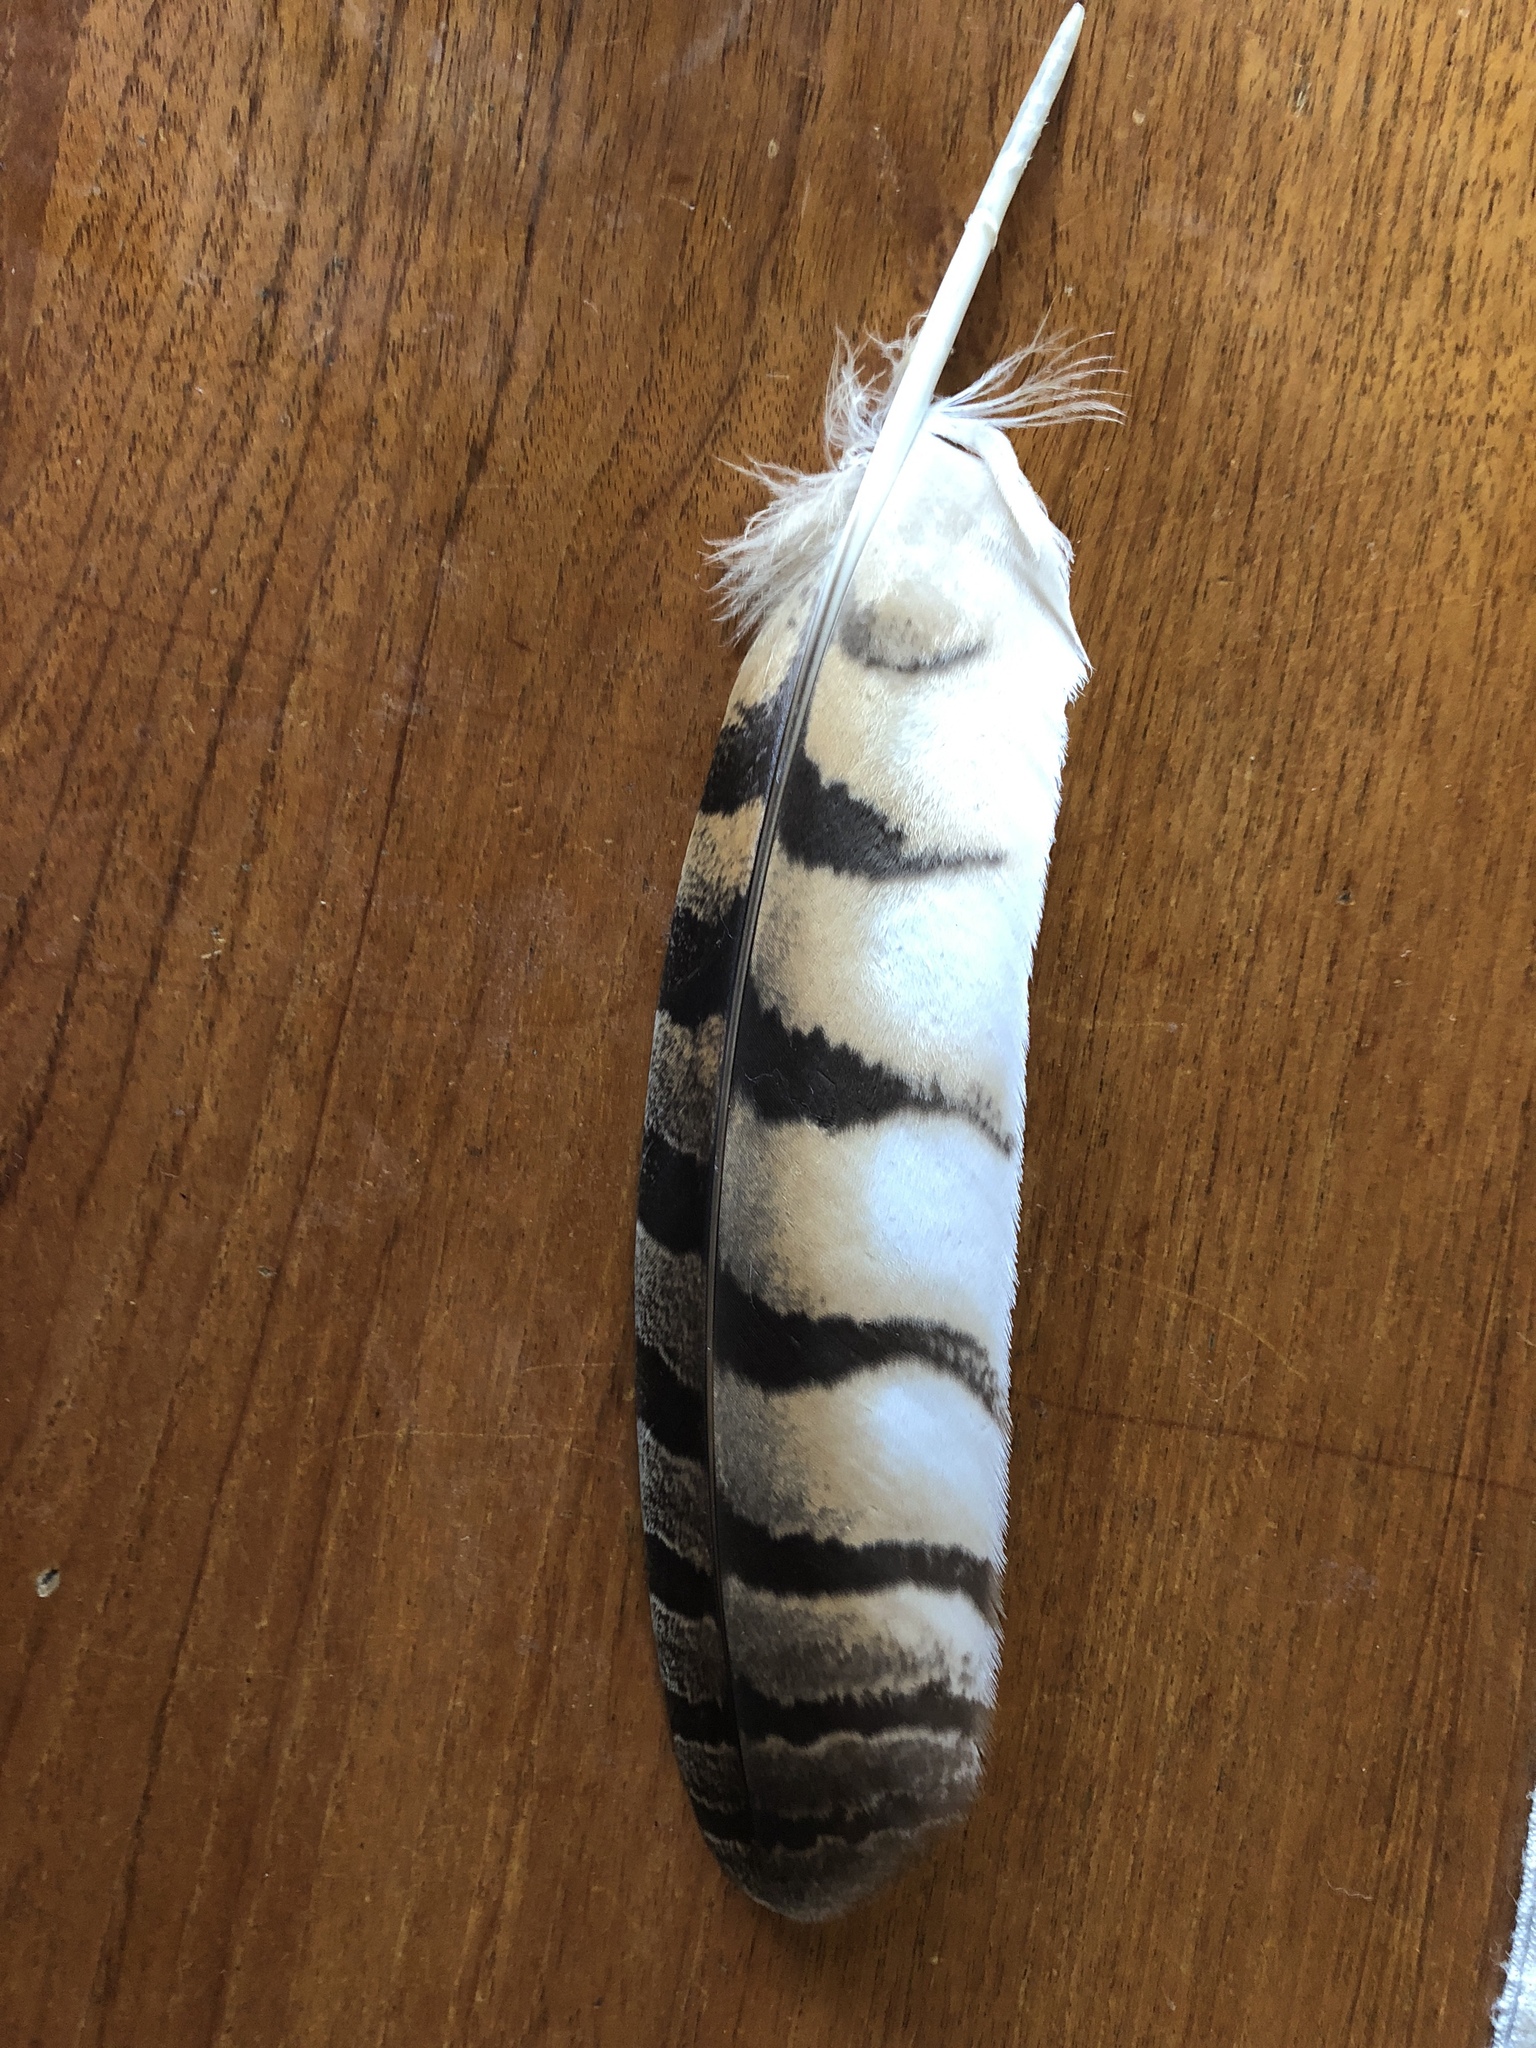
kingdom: Animalia
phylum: Chordata
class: Aves
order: Strigiformes
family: Strigidae
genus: Bubo
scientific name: Bubo virginianus
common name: Great horned owl
